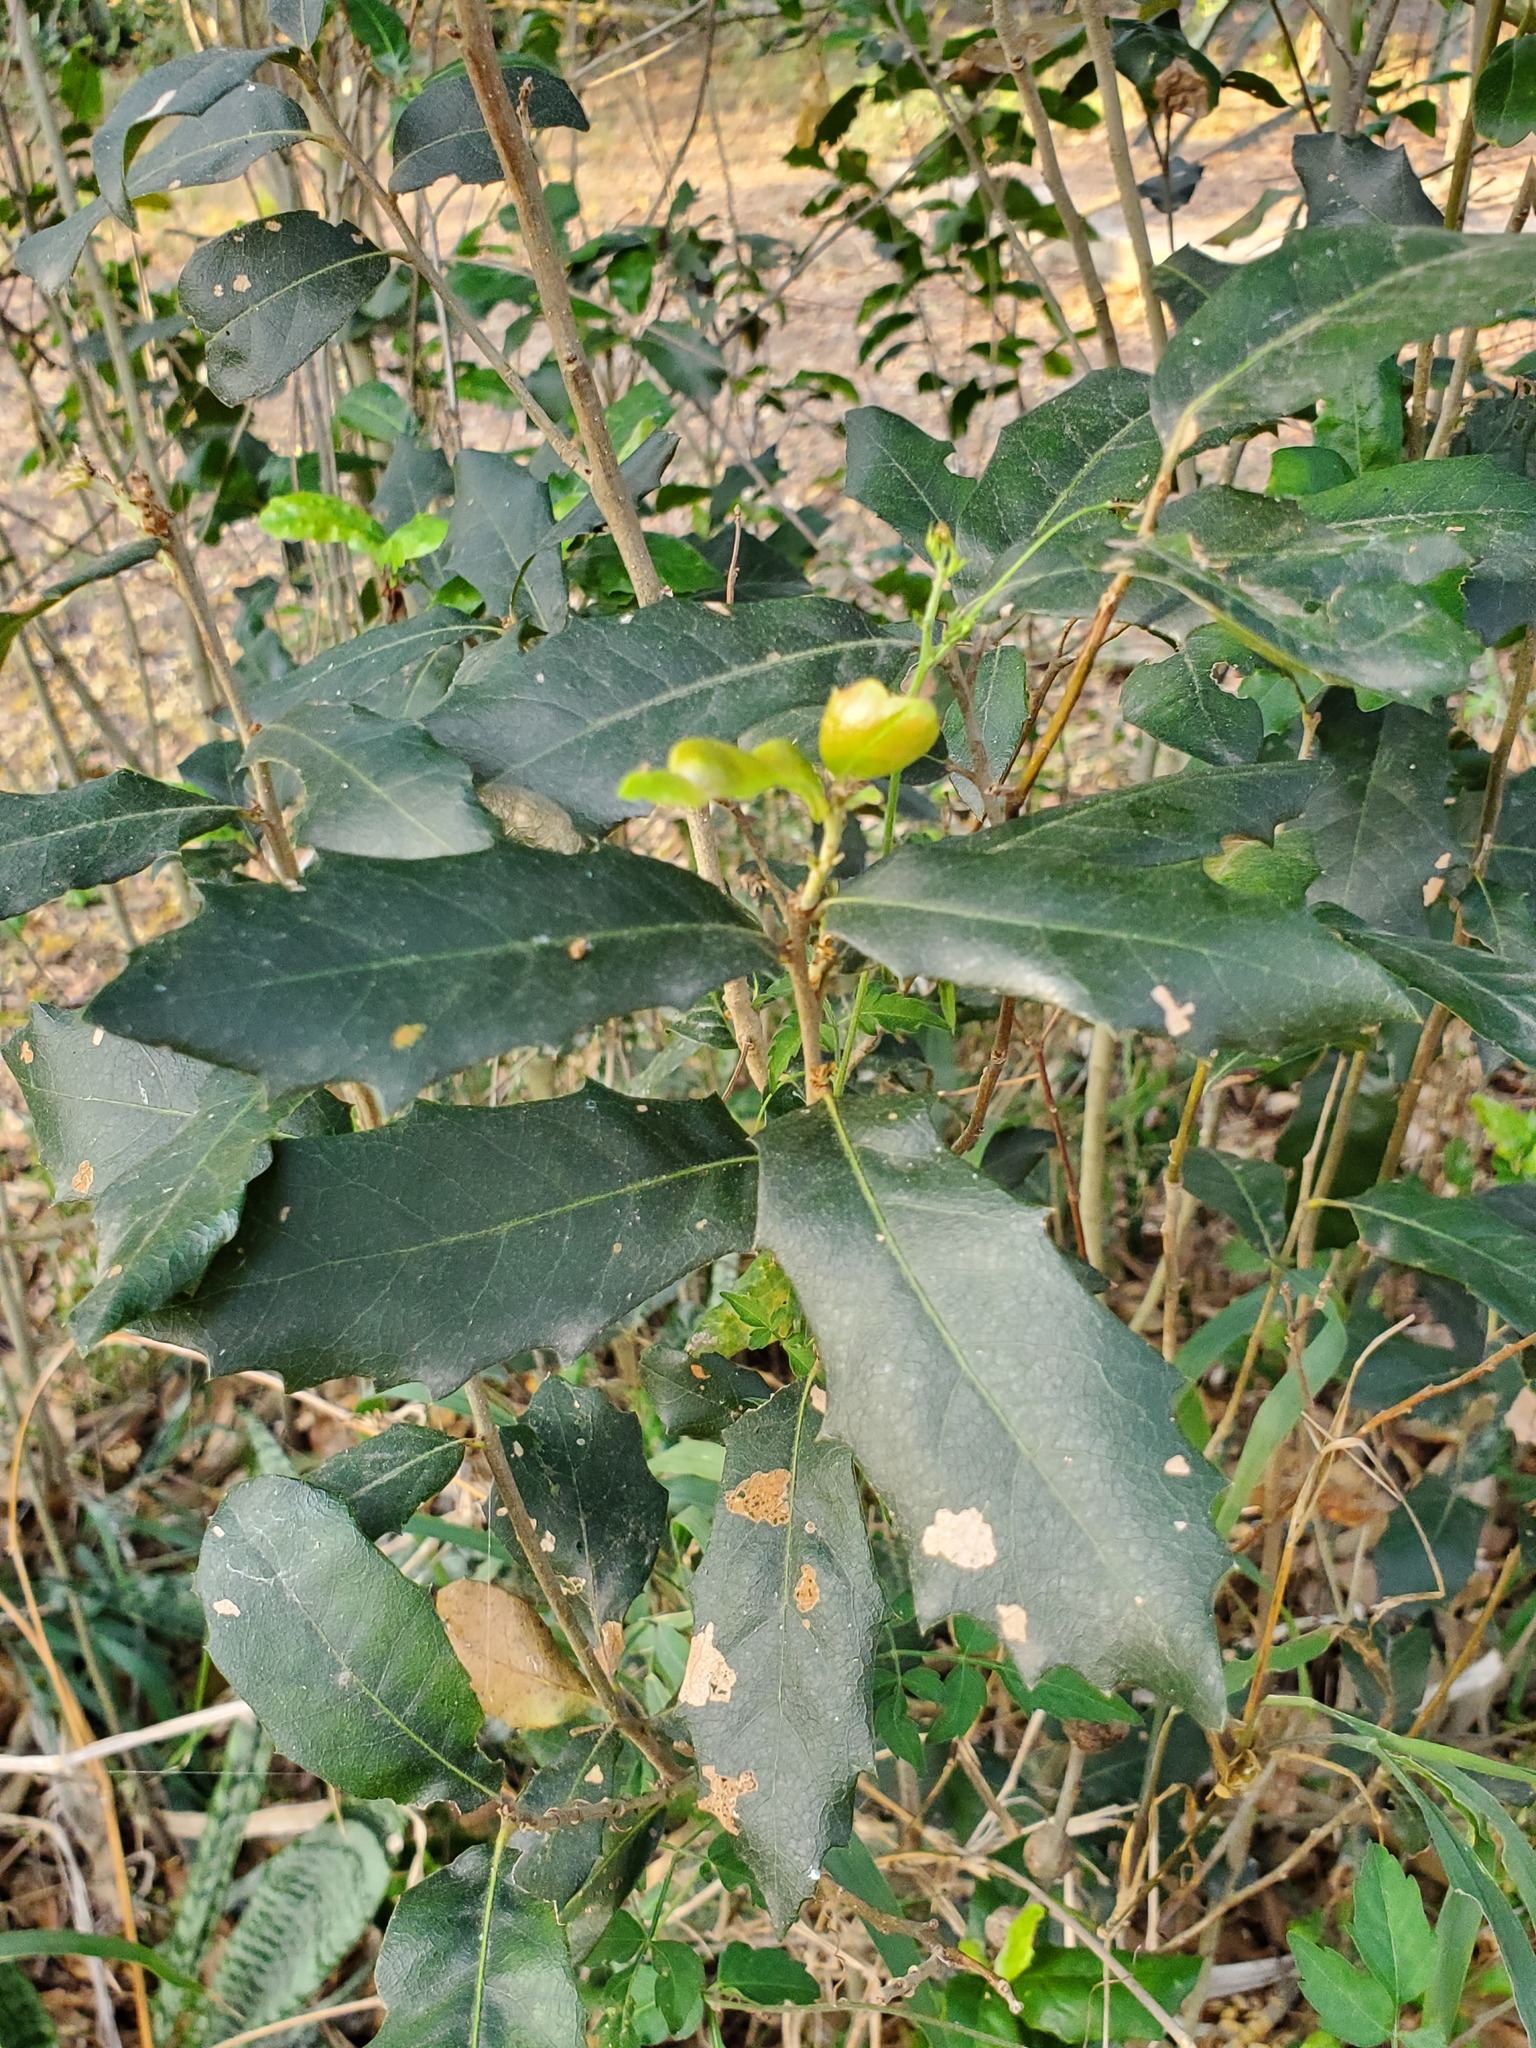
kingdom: Plantae
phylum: Tracheophyta
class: Magnoliopsida
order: Fagales
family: Fagaceae
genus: Quercus
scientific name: Quercus virginiana
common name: Southern live oak
